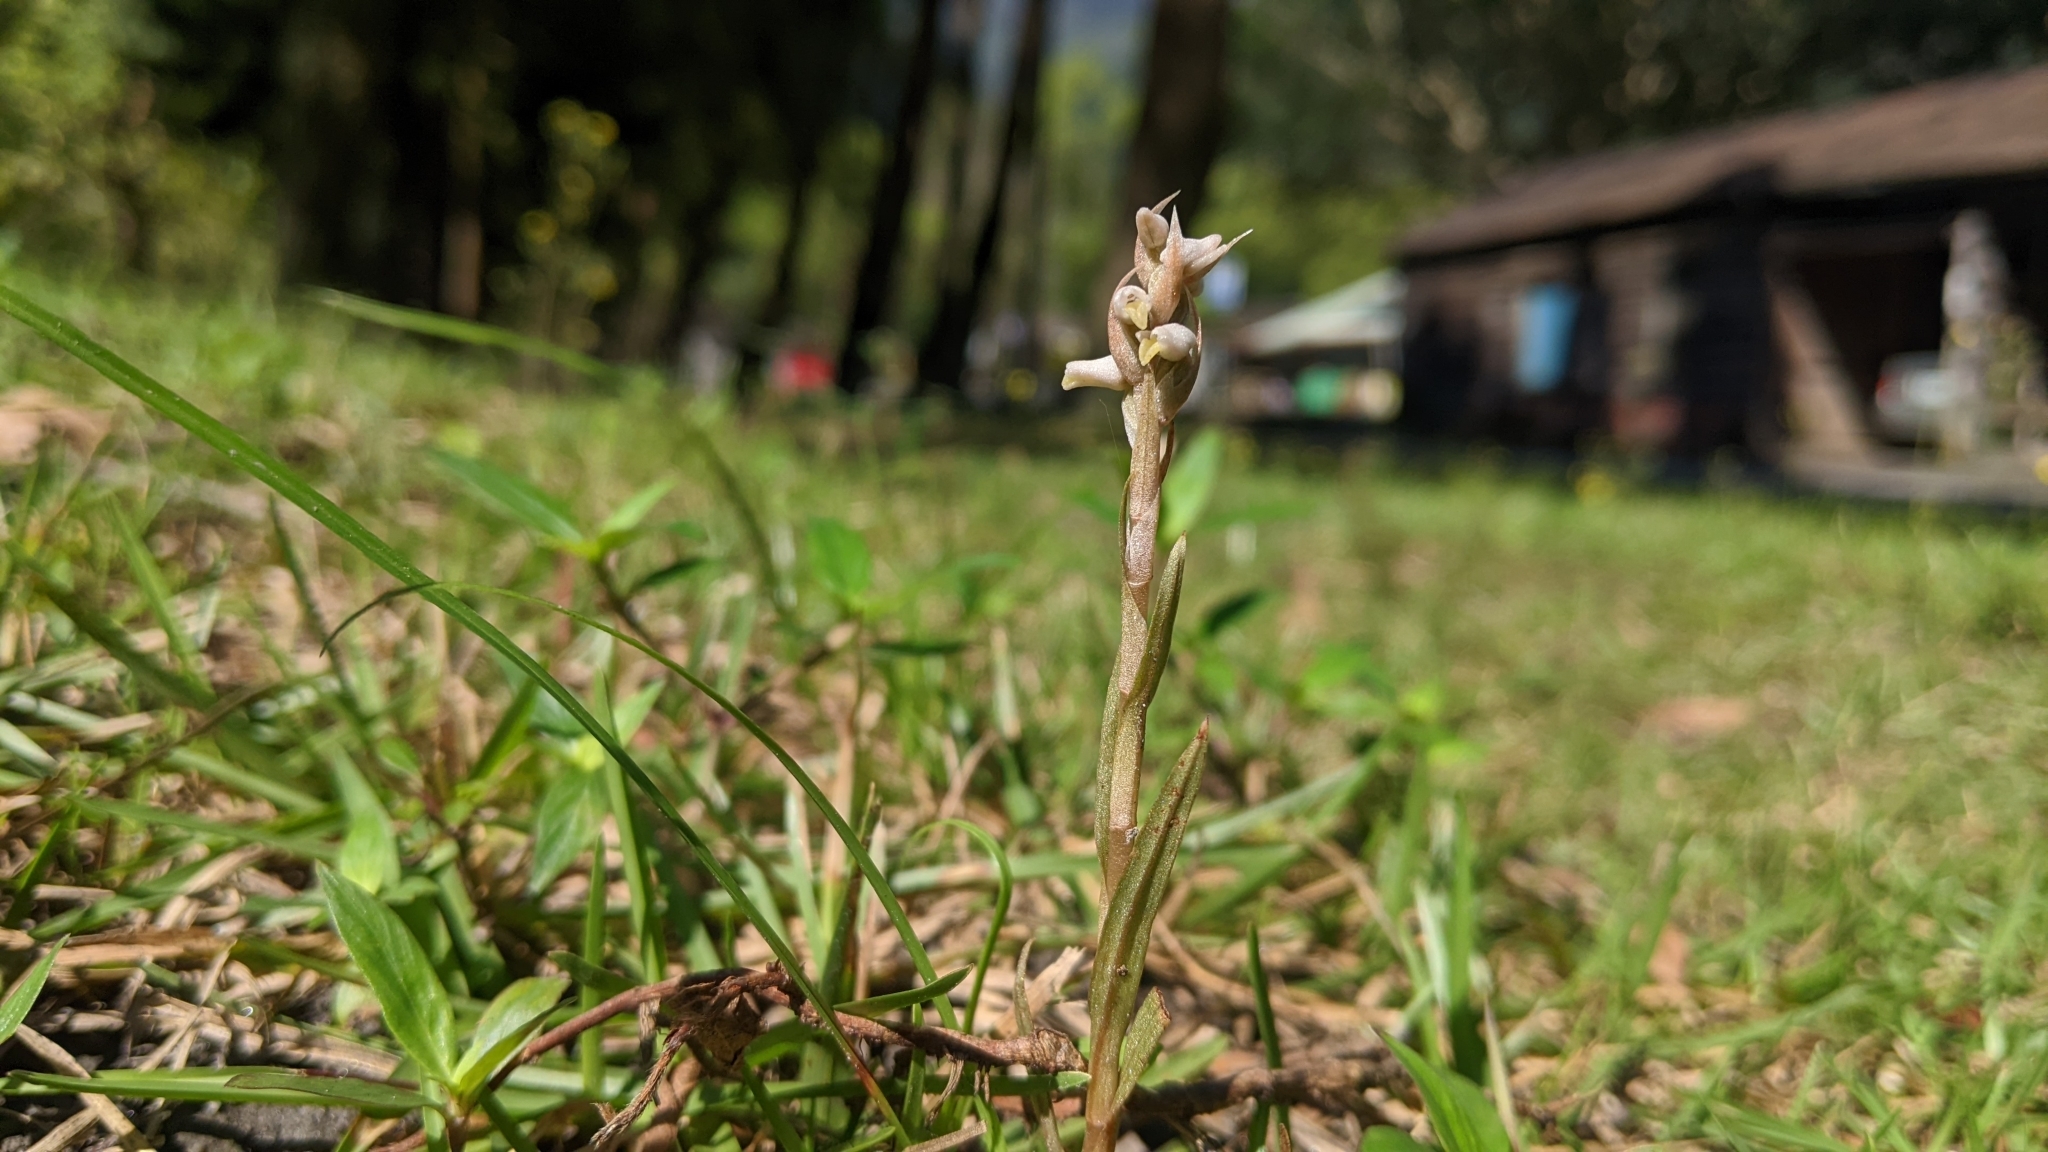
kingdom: Plantae
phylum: Tracheophyta
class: Liliopsida
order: Asparagales
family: Orchidaceae
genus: Zeuxine
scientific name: Zeuxine strateumatica
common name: Soldier's orchid
